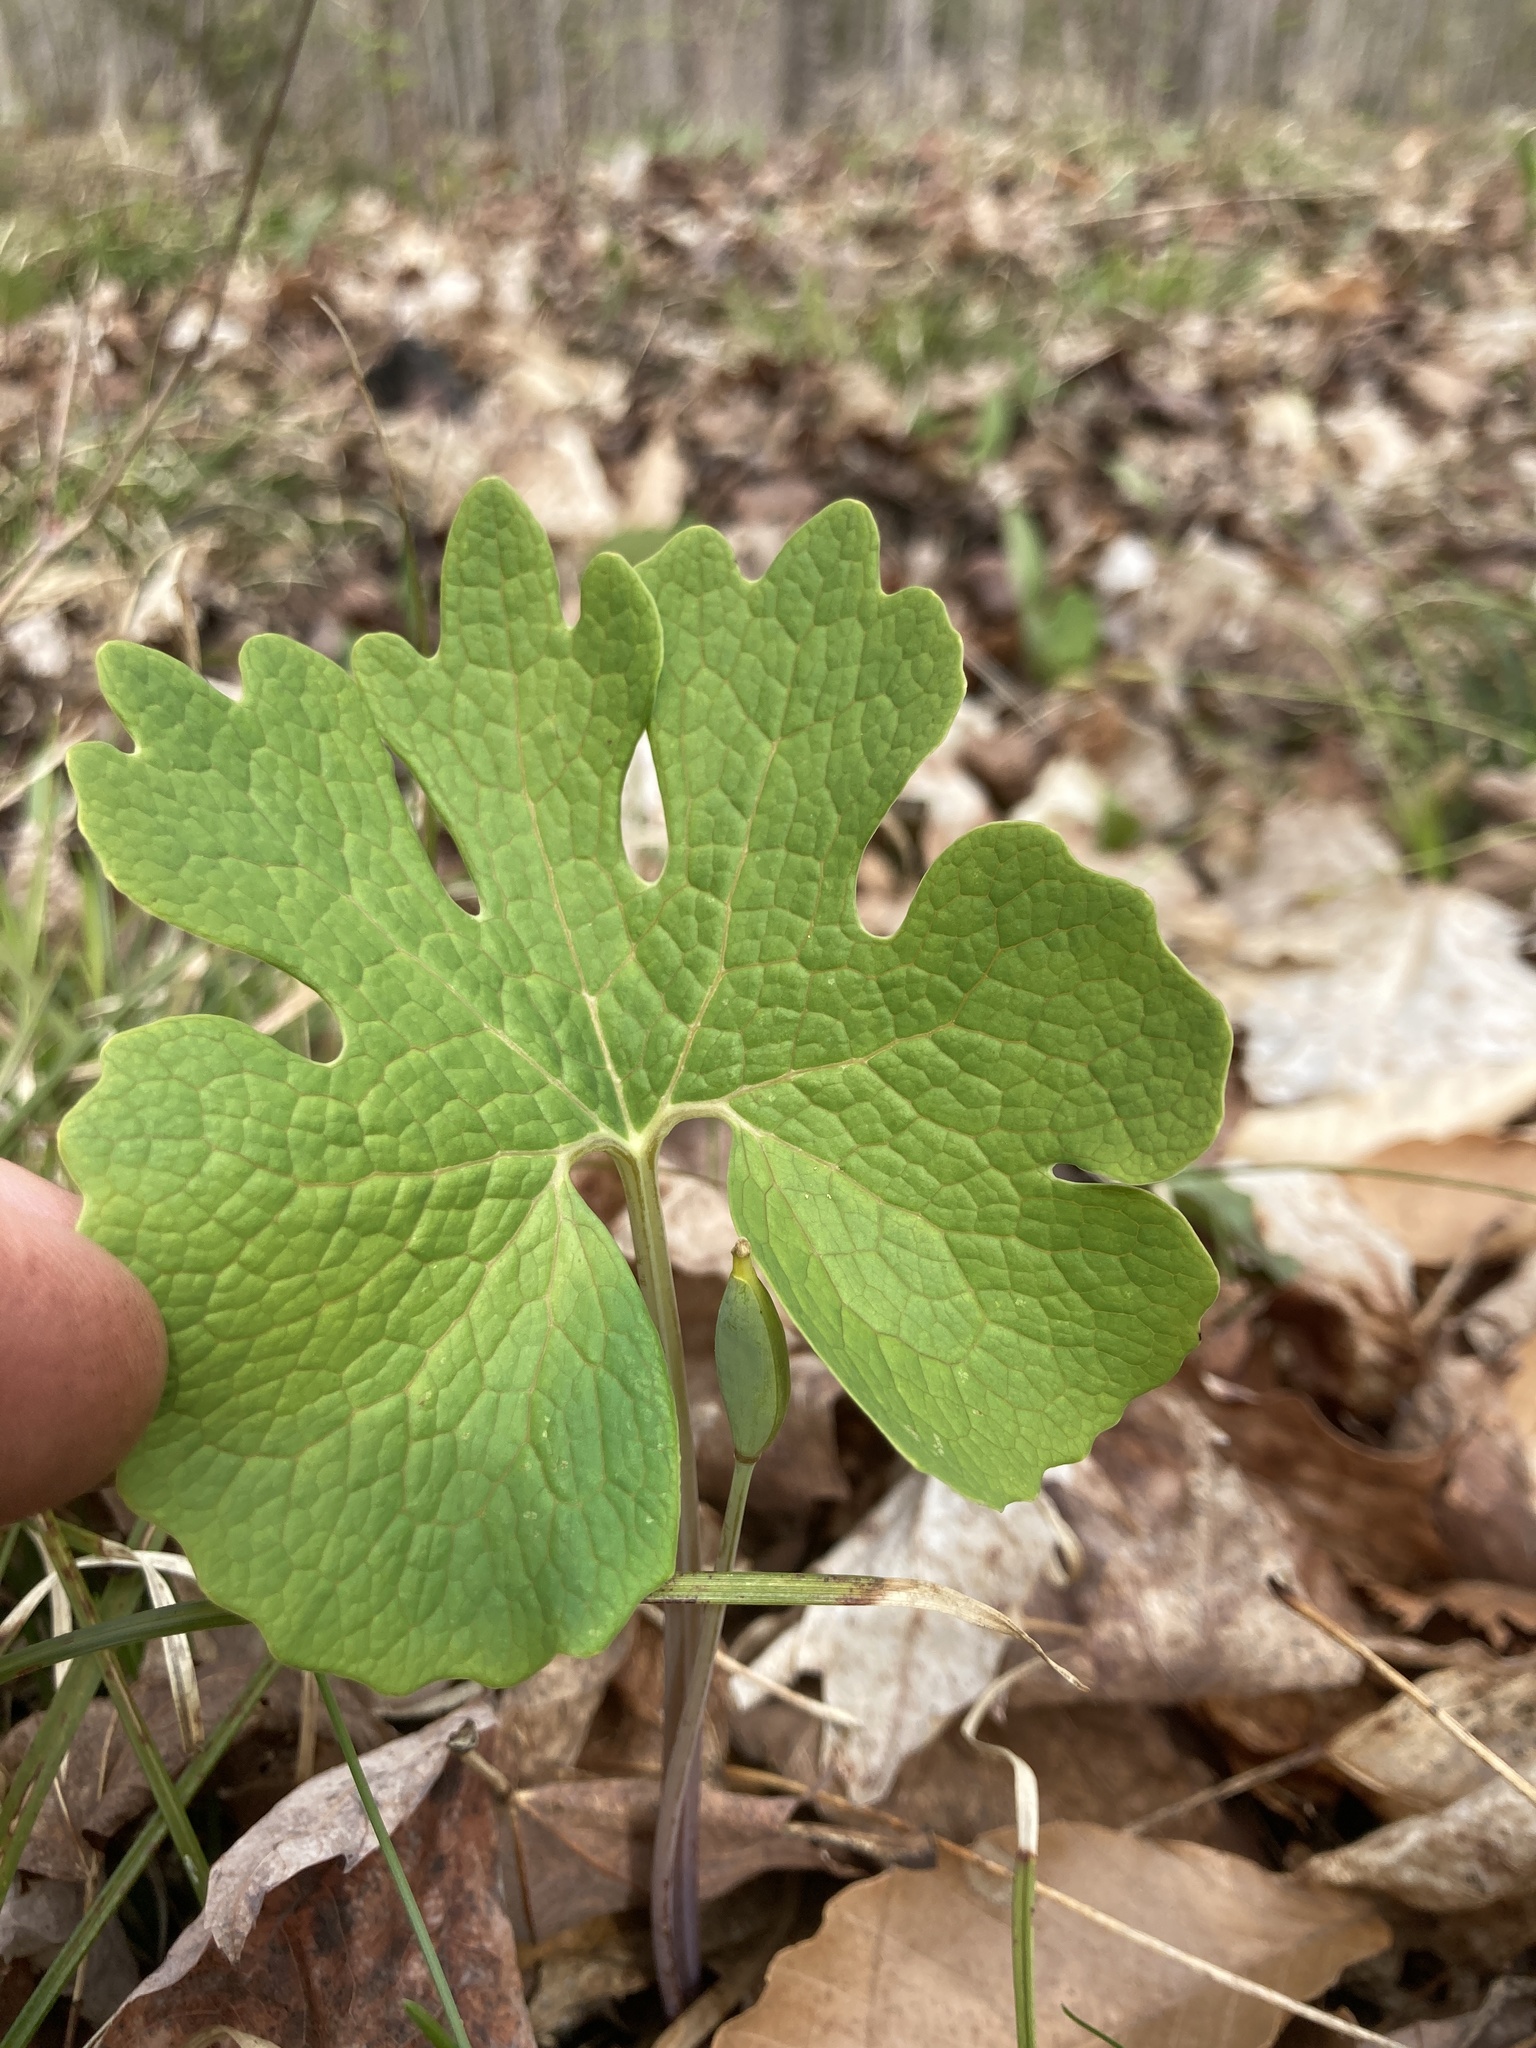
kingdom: Plantae
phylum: Tracheophyta
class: Magnoliopsida
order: Ranunculales
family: Papaveraceae
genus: Sanguinaria
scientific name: Sanguinaria canadensis
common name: Bloodroot
